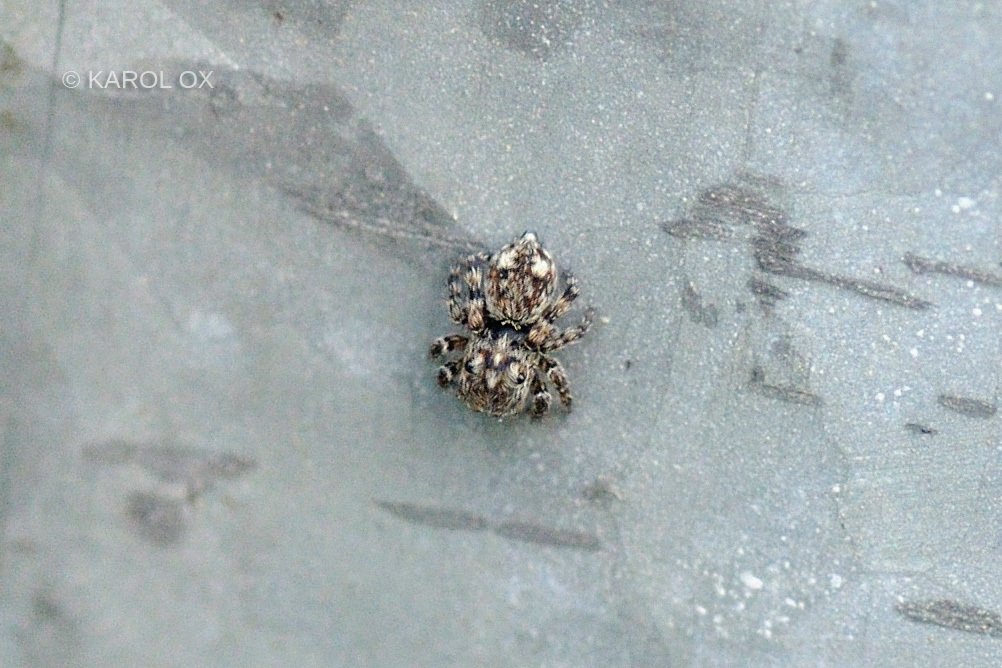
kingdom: Animalia
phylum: Arthropoda
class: Arachnida
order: Araneae
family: Salticidae
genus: Attulus
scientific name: Attulus pubescens
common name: Jumping spider
